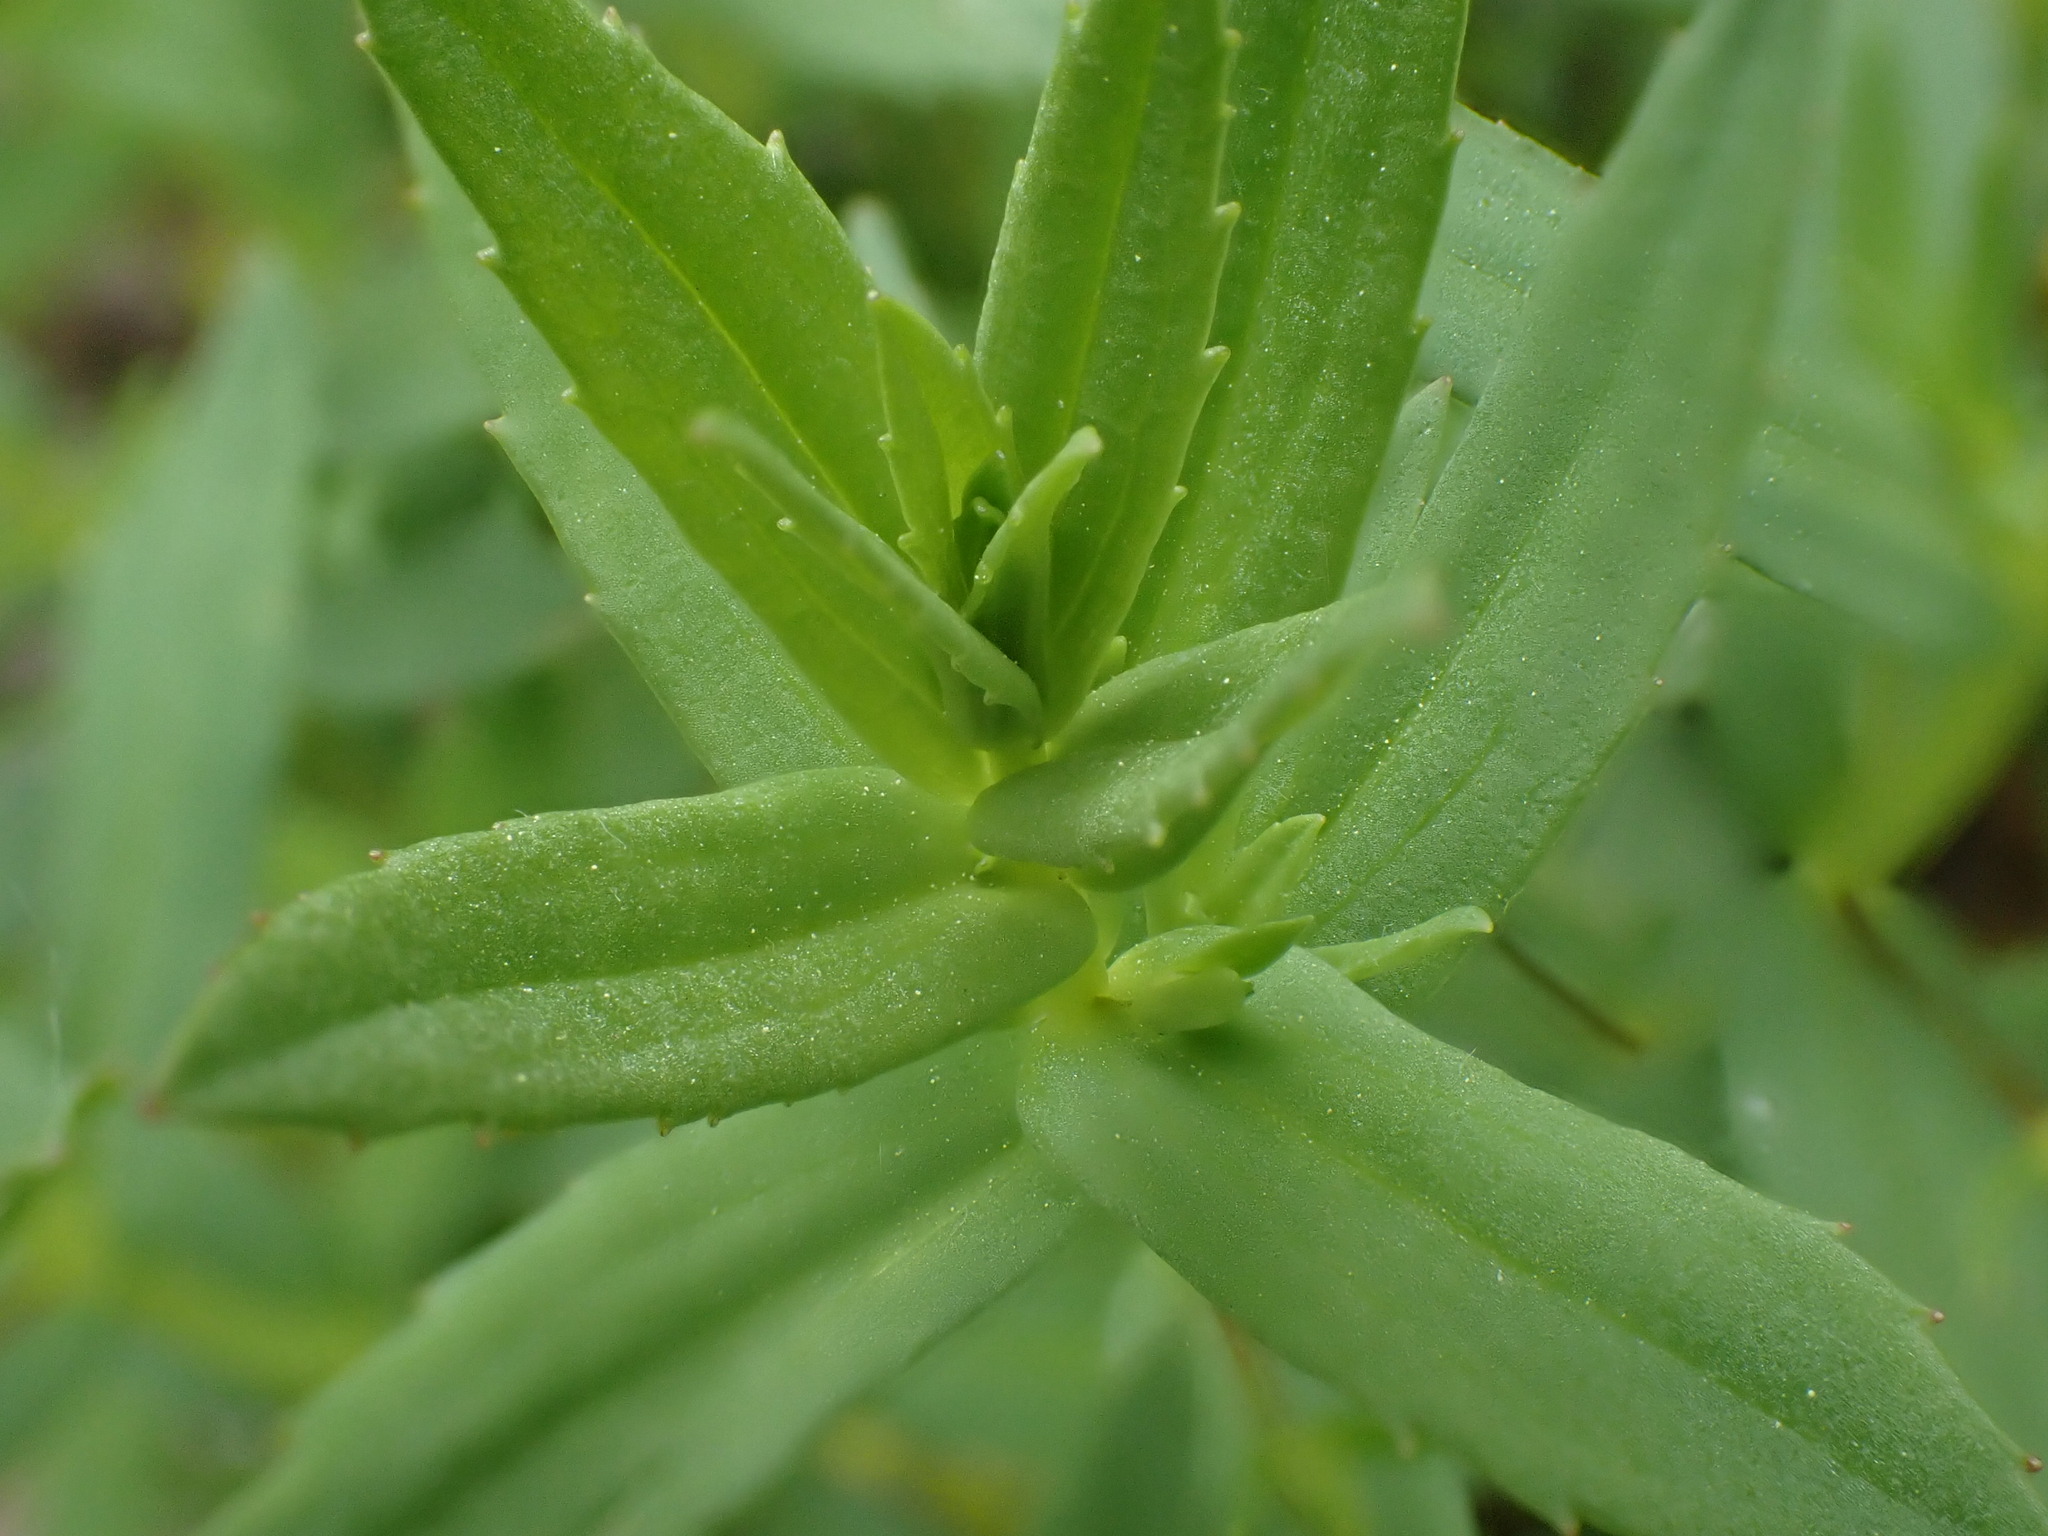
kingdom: Plantae
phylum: Tracheophyta
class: Magnoliopsida
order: Lamiales
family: Plantaginaceae
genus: Gratiola
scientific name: Gratiola officinalis
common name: Gratiola
